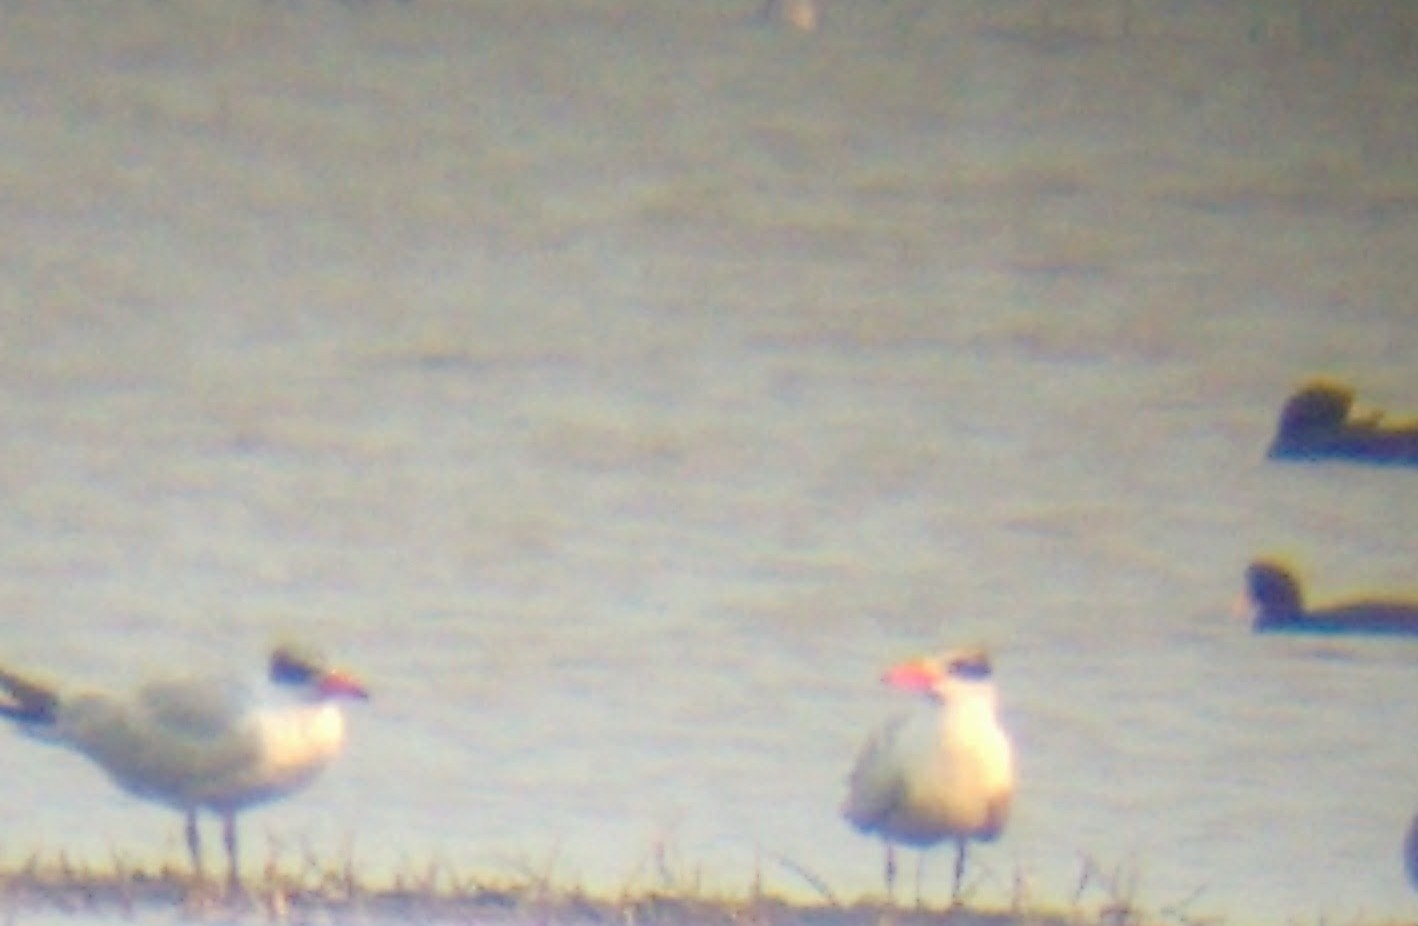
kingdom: Animalia
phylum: Chordata
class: Aves
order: Charadriiformes
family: Laridae
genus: Hydroprogne
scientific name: Hydroprogne caspia
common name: Caspian tern
